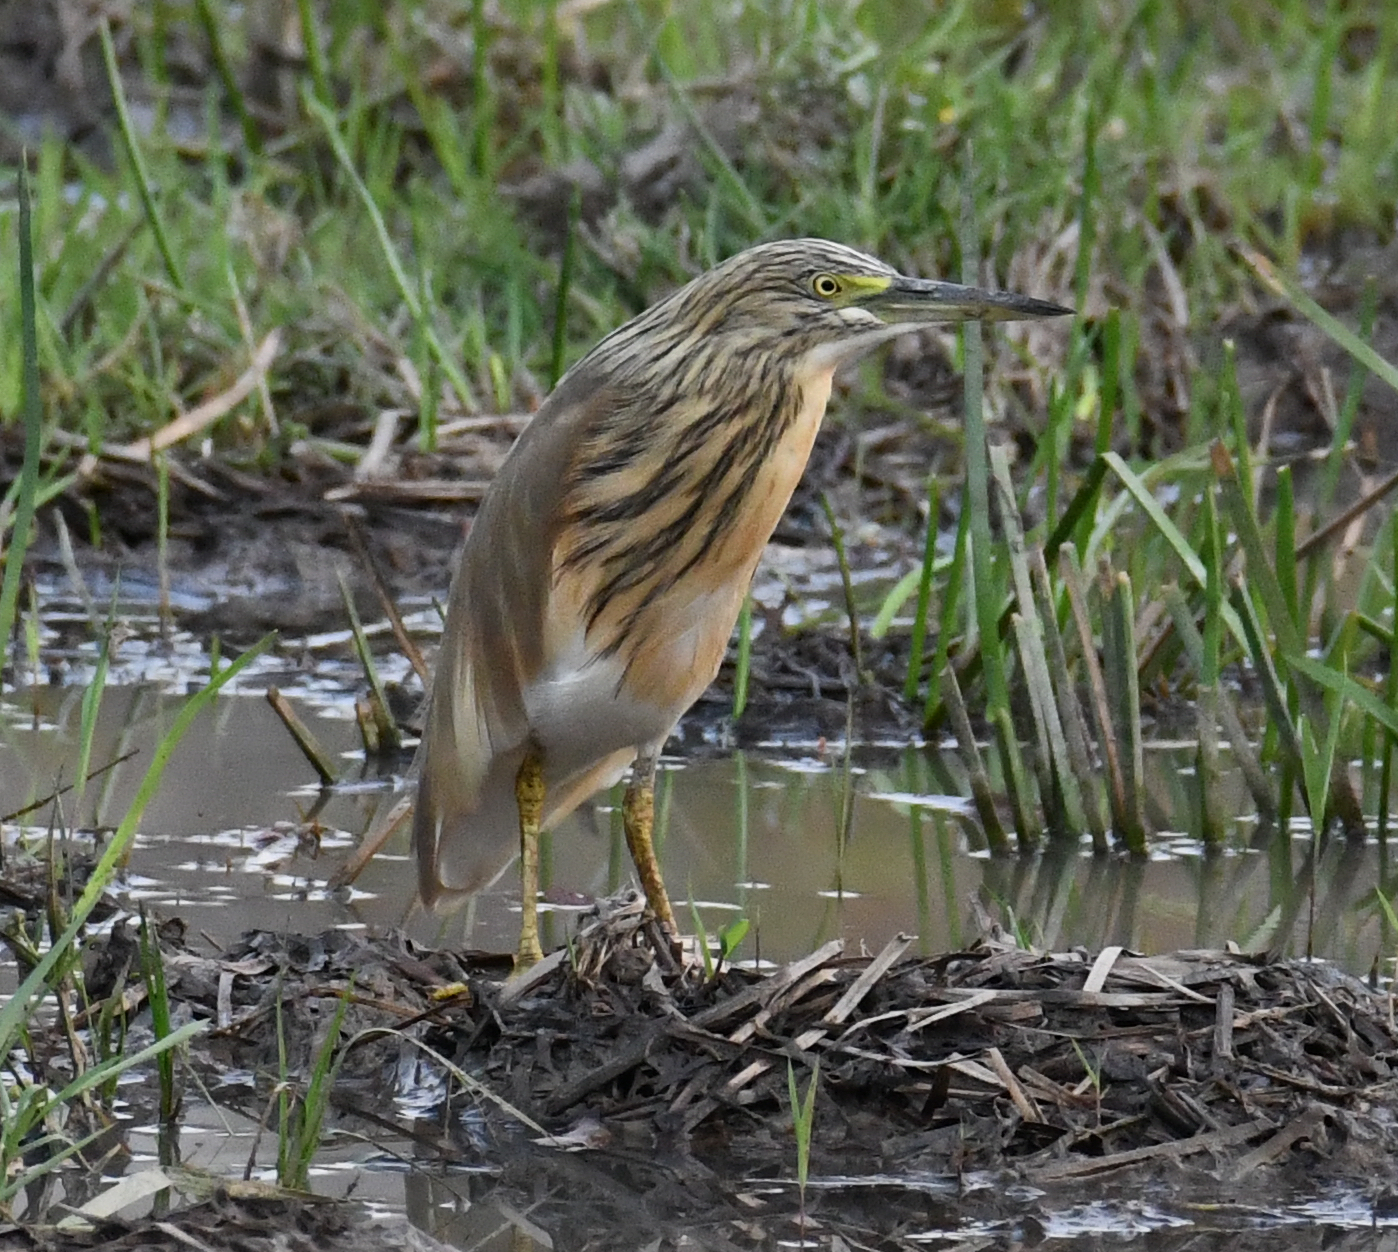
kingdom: Animalia
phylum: Chordata
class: Aves
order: Pelecaniformes
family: Ardeidae
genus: Ardeola
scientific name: Ardeola ralloides
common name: Squacco heron
